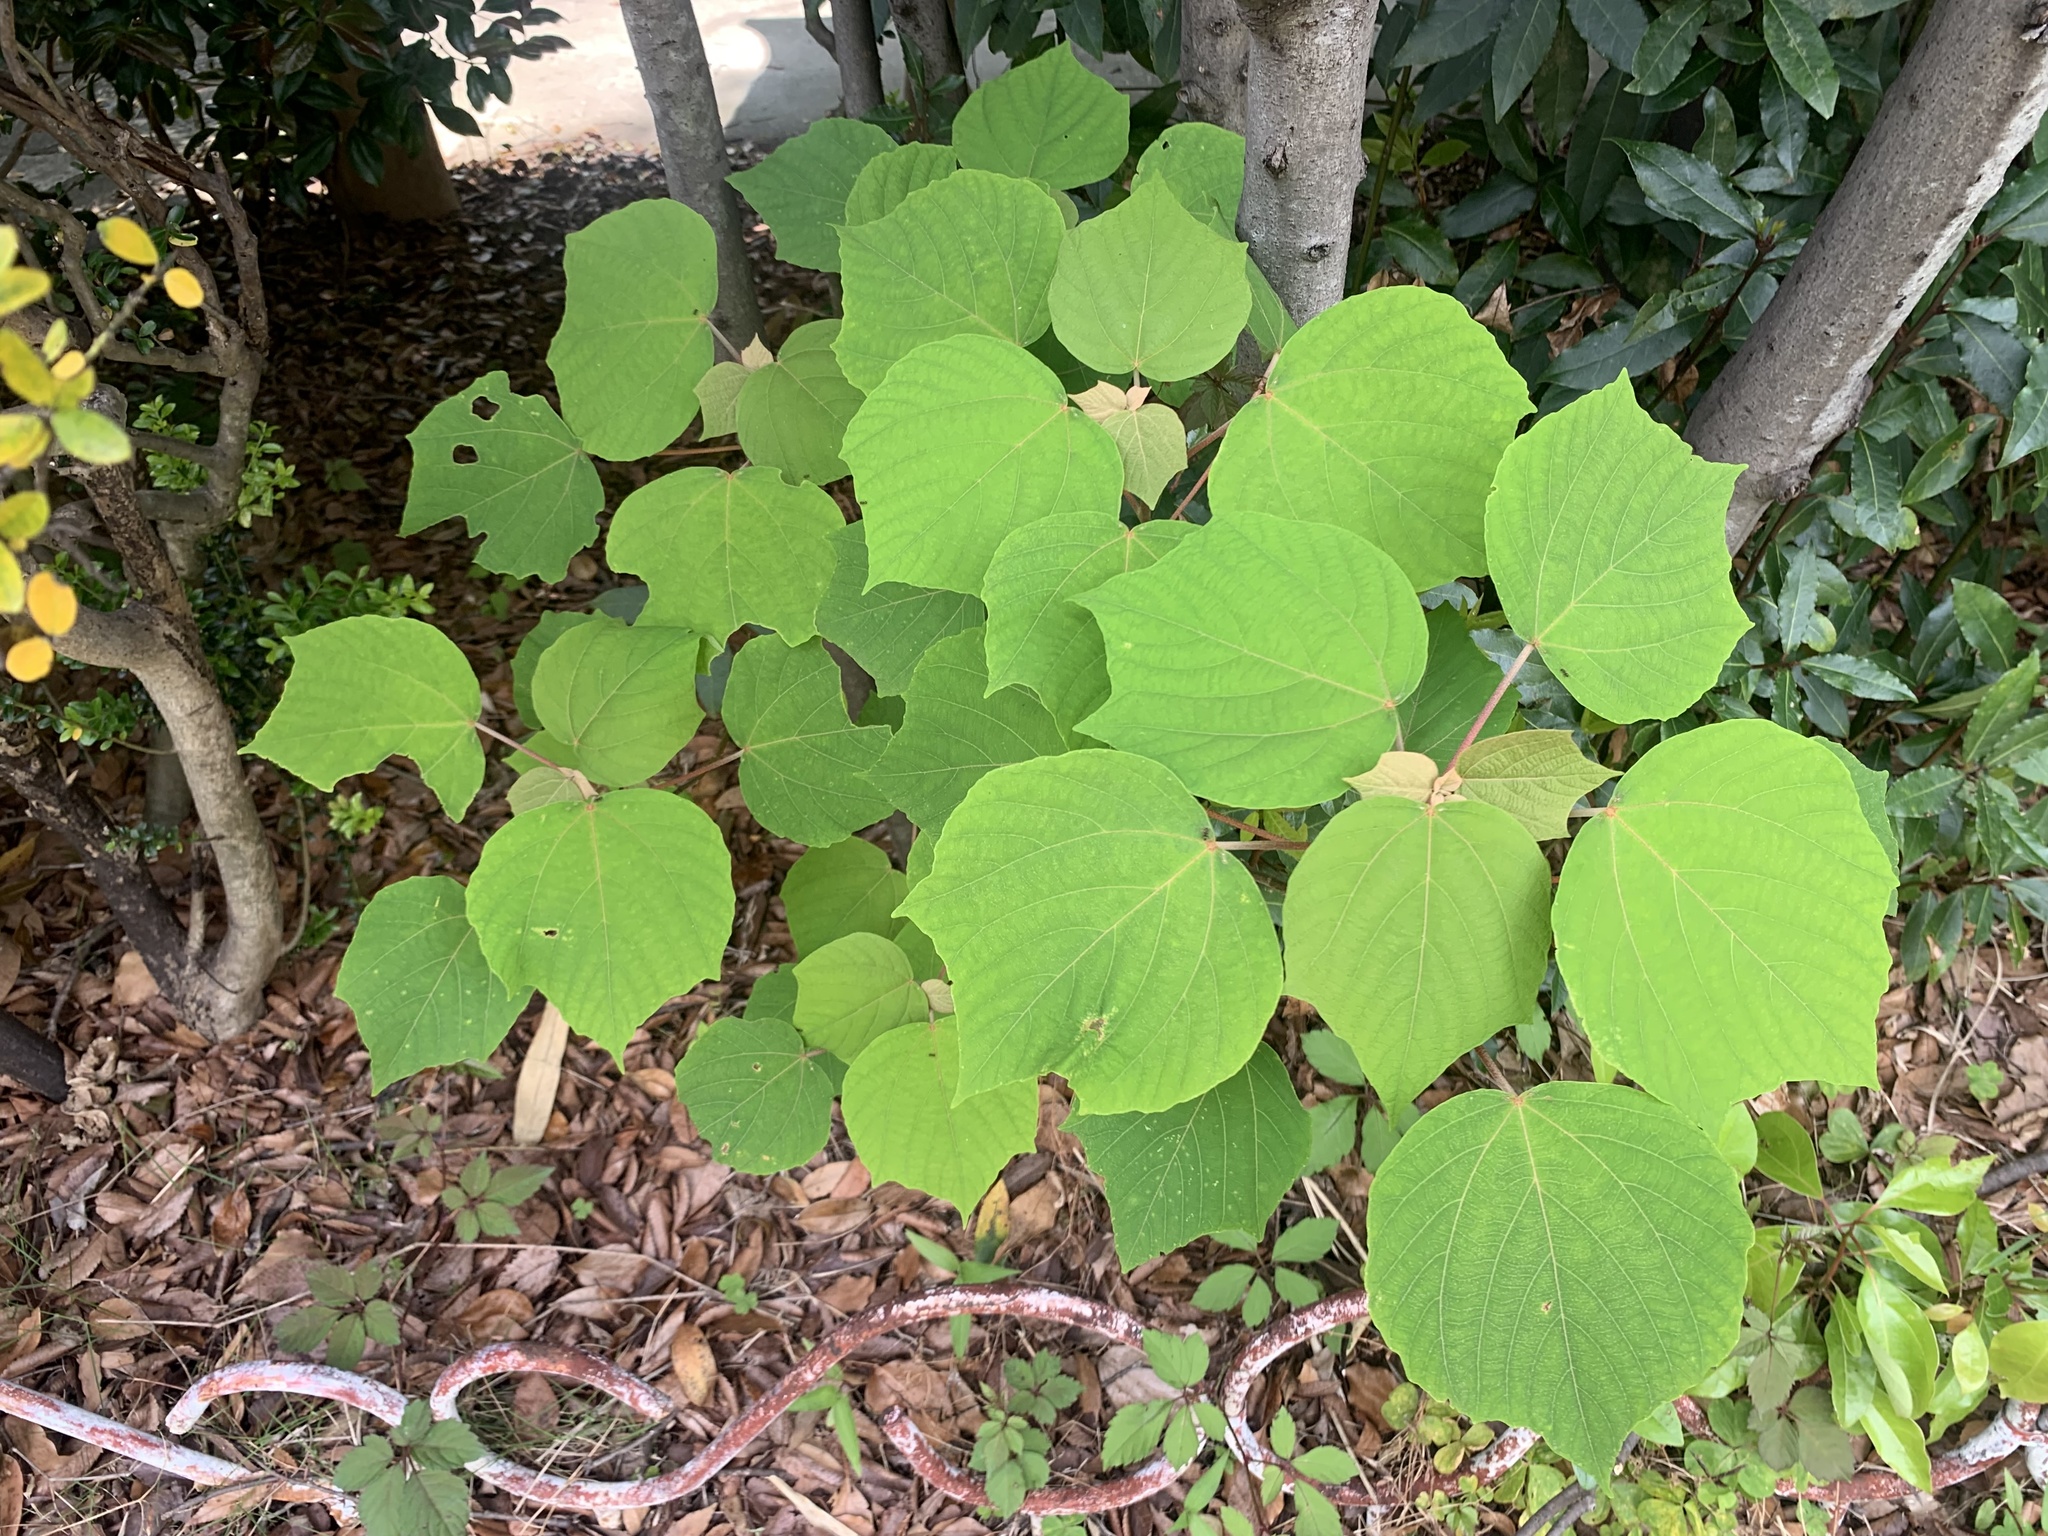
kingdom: Plantae
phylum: Tracheophyta
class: Magnoliopsida
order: Malpighiales
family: Euphorbiaceae
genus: Mallotus
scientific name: Mallotus japonicus
